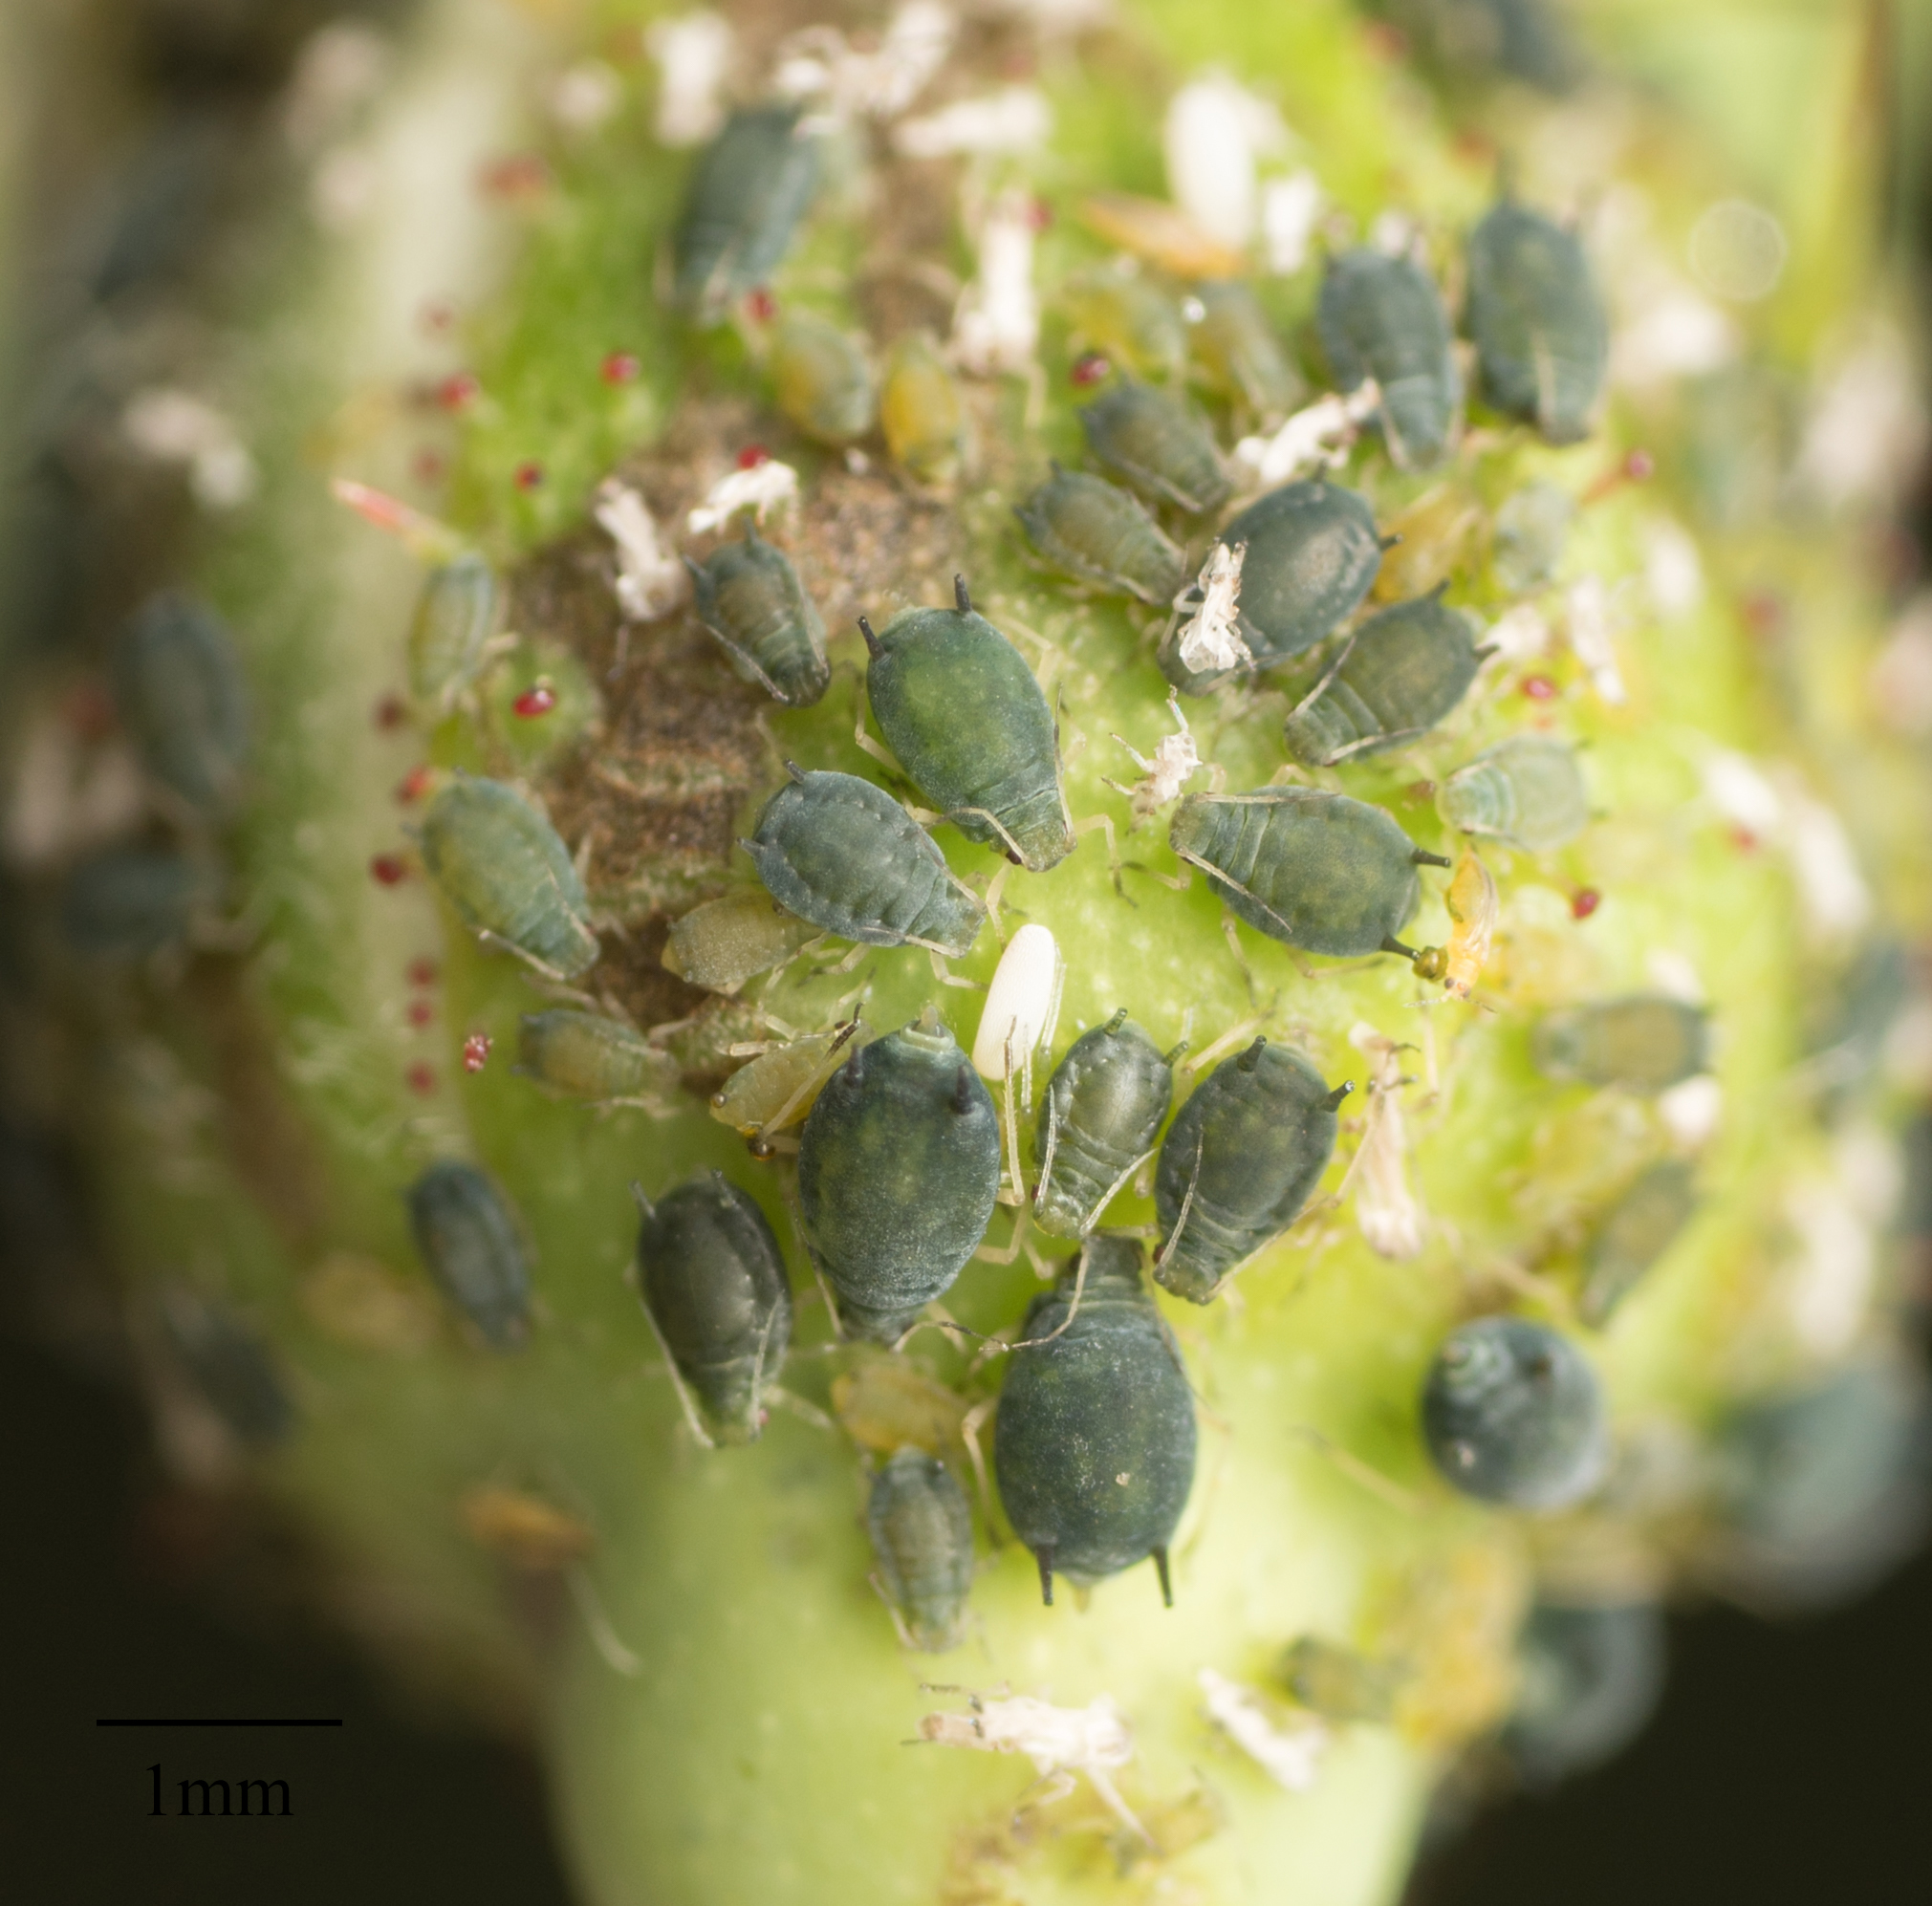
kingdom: Animalia
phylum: Arthropoda
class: Insecta
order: Hemiptera
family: Aphididae
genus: Aphis
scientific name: Aphis gossypii
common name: Melon aphid
